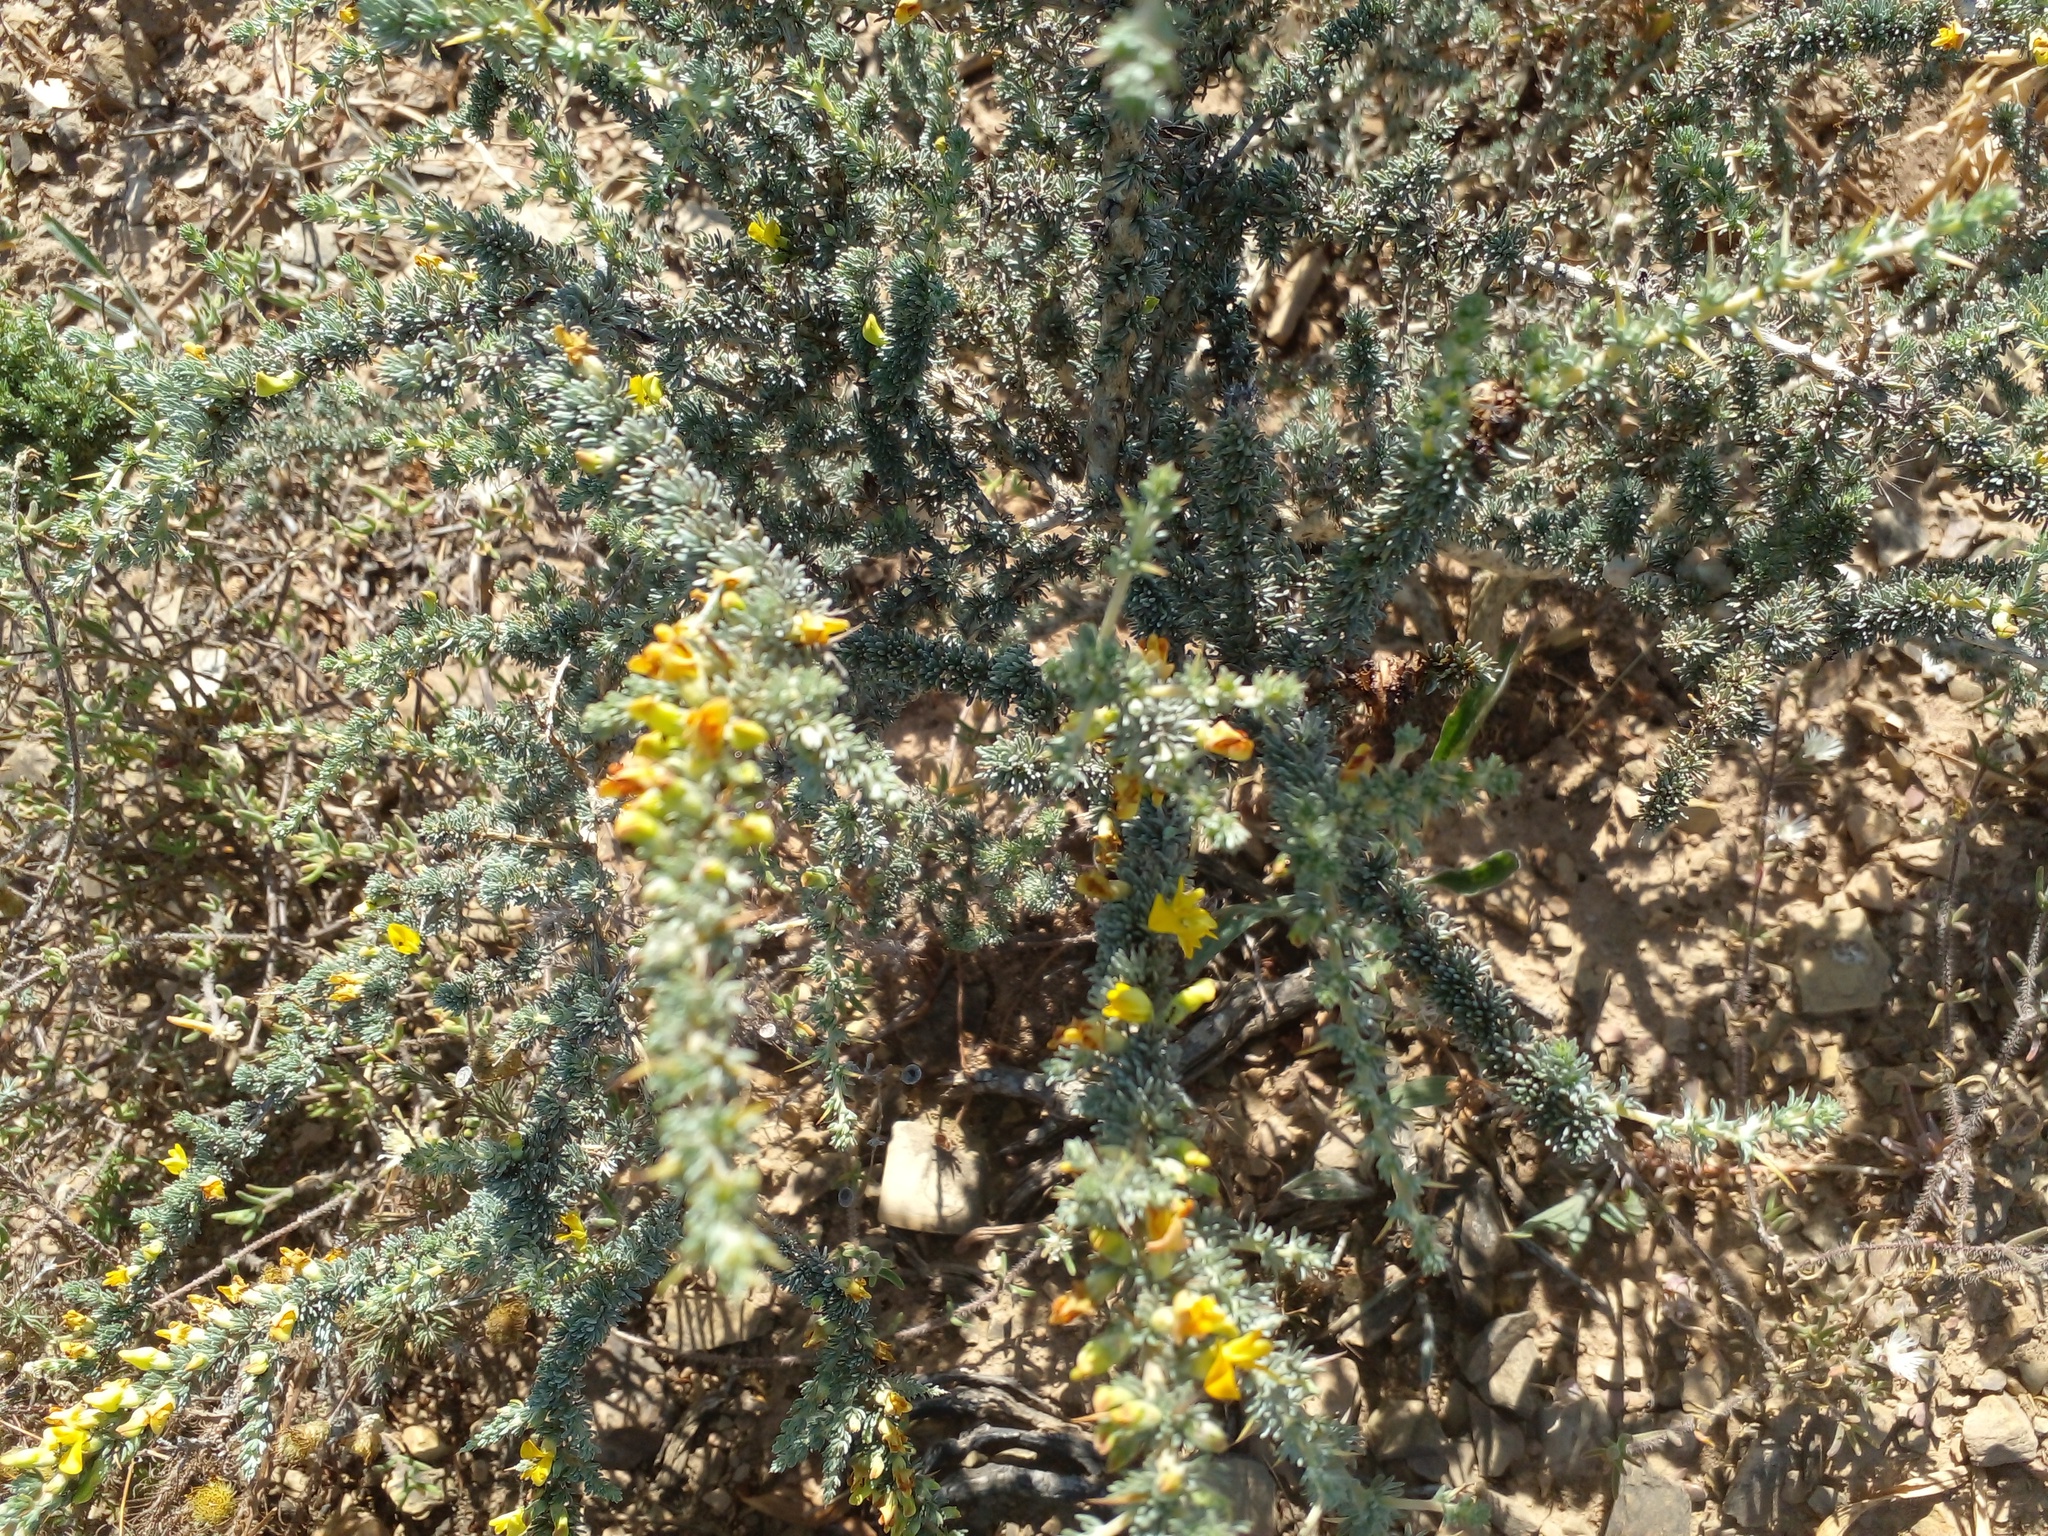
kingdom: Plantae
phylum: Tracheophyta
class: Magnoliopsida
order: Fabales
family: Fabaceae
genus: Aspalathus
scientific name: Aspalathus acanthophylla
